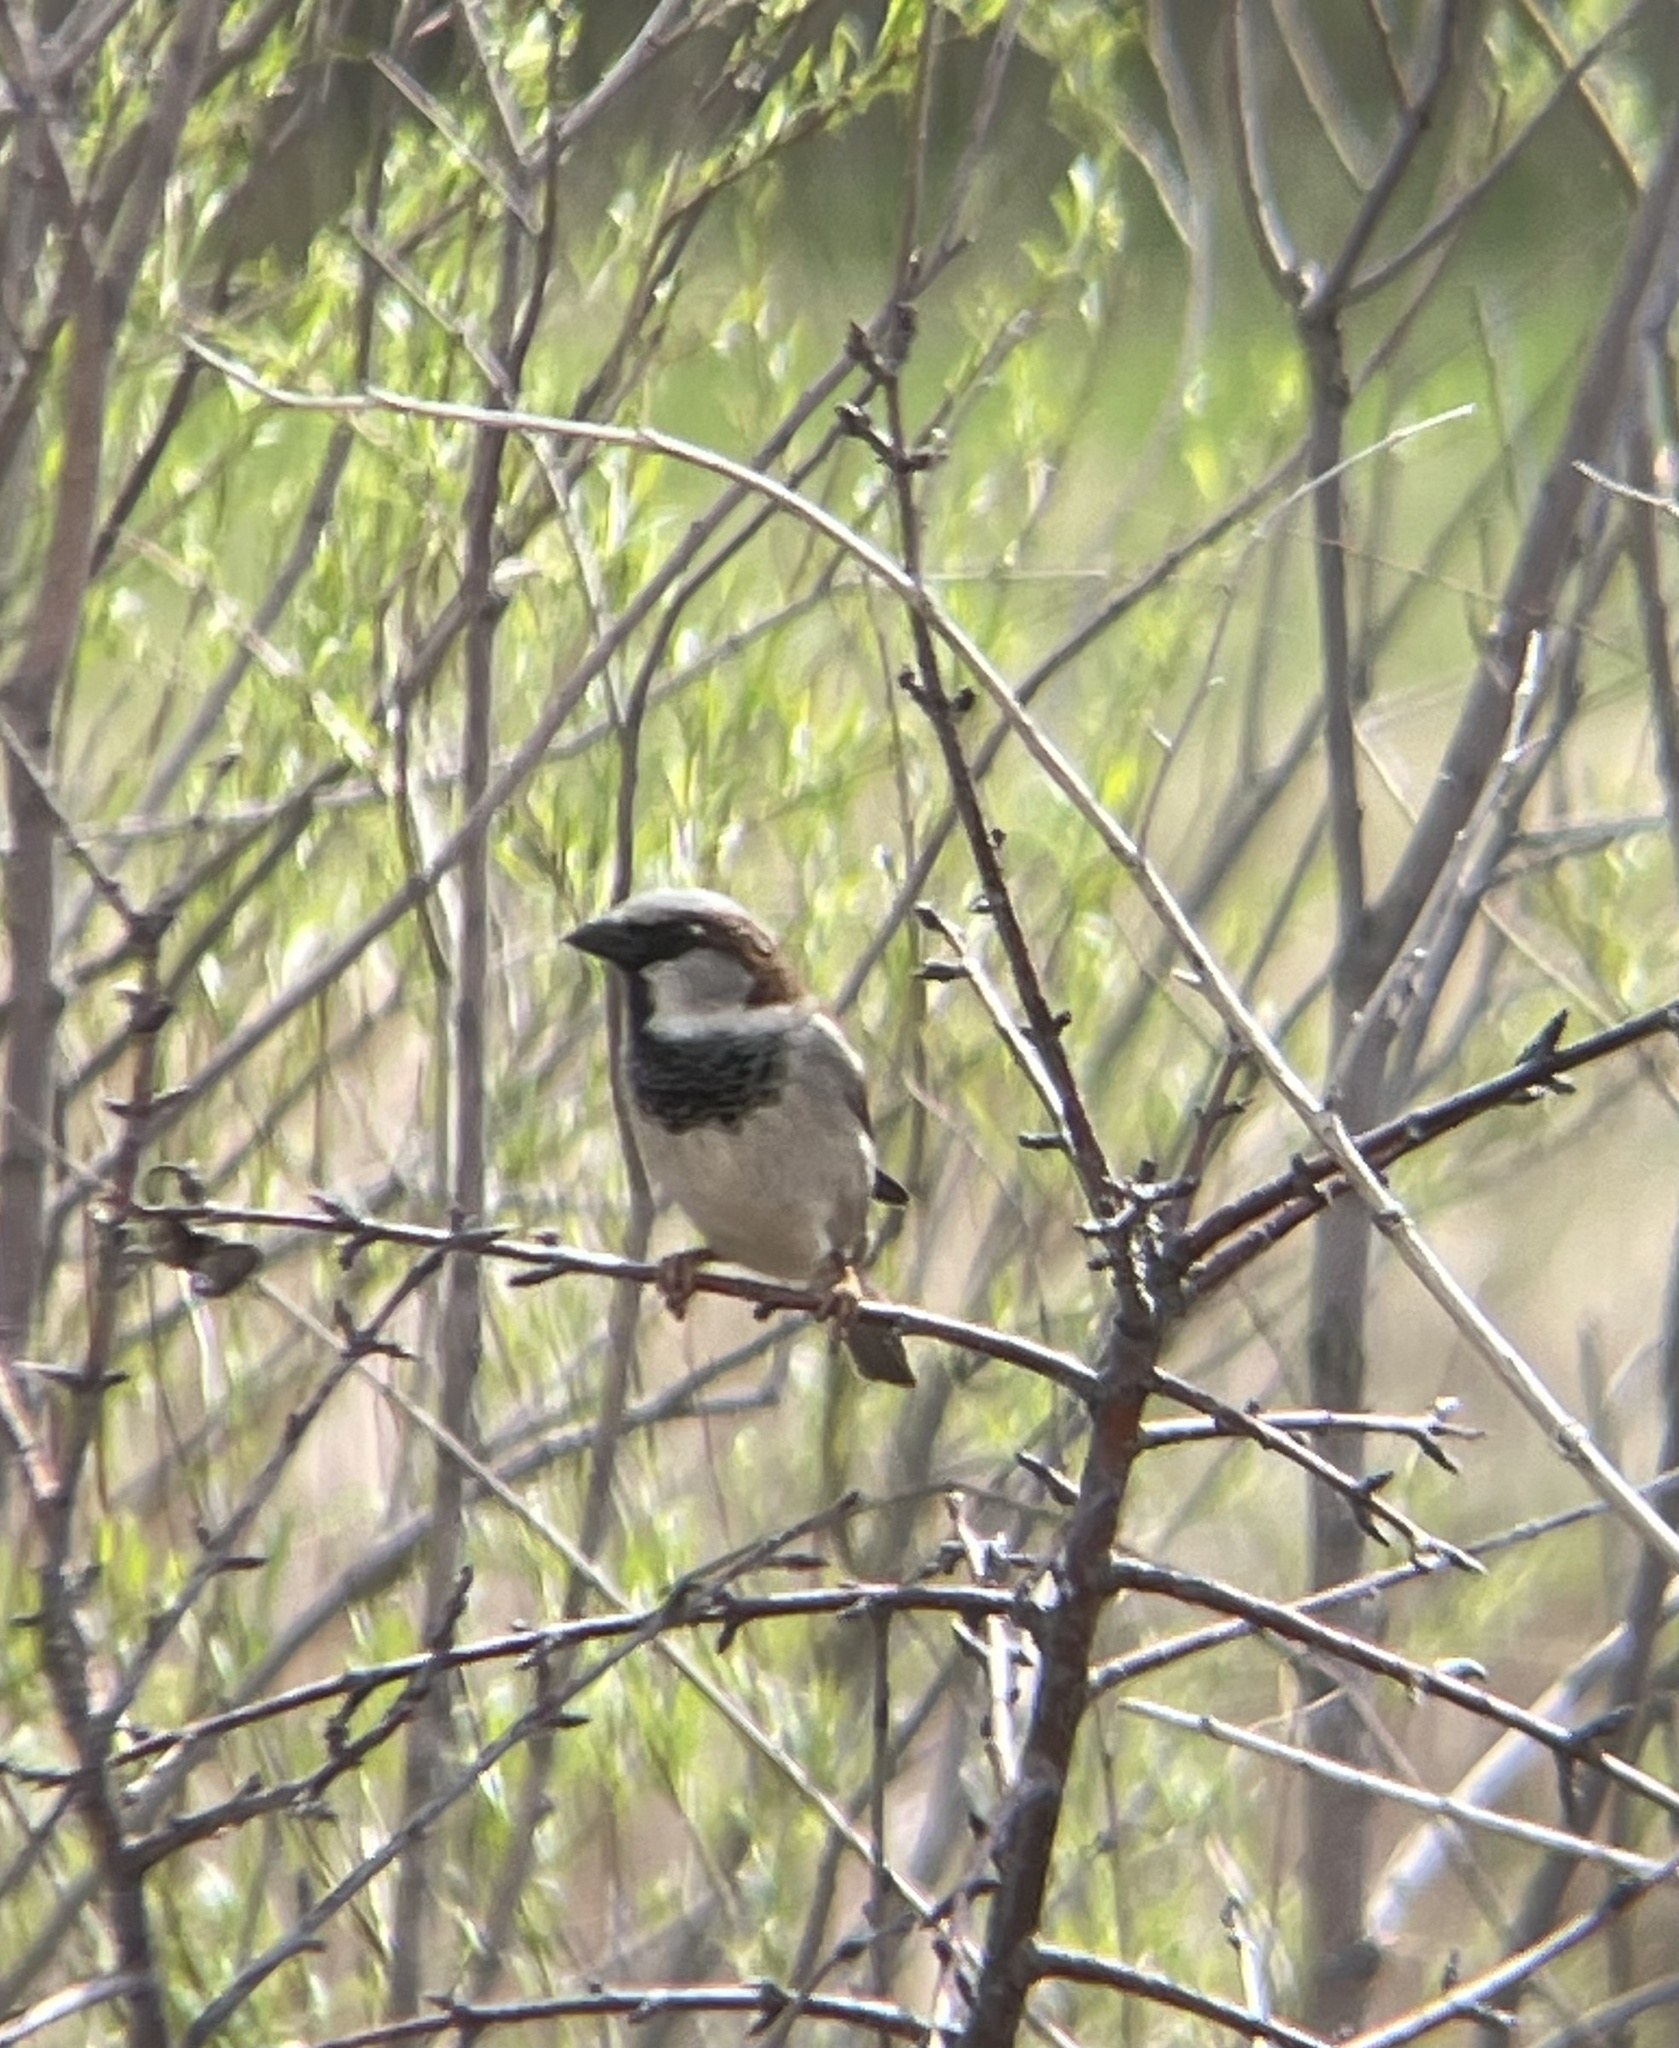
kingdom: Animalia
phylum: Chordata
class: Aves
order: Passeriformes
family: Passeridae
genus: Passer
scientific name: Passer domesticus
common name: House sparrow
